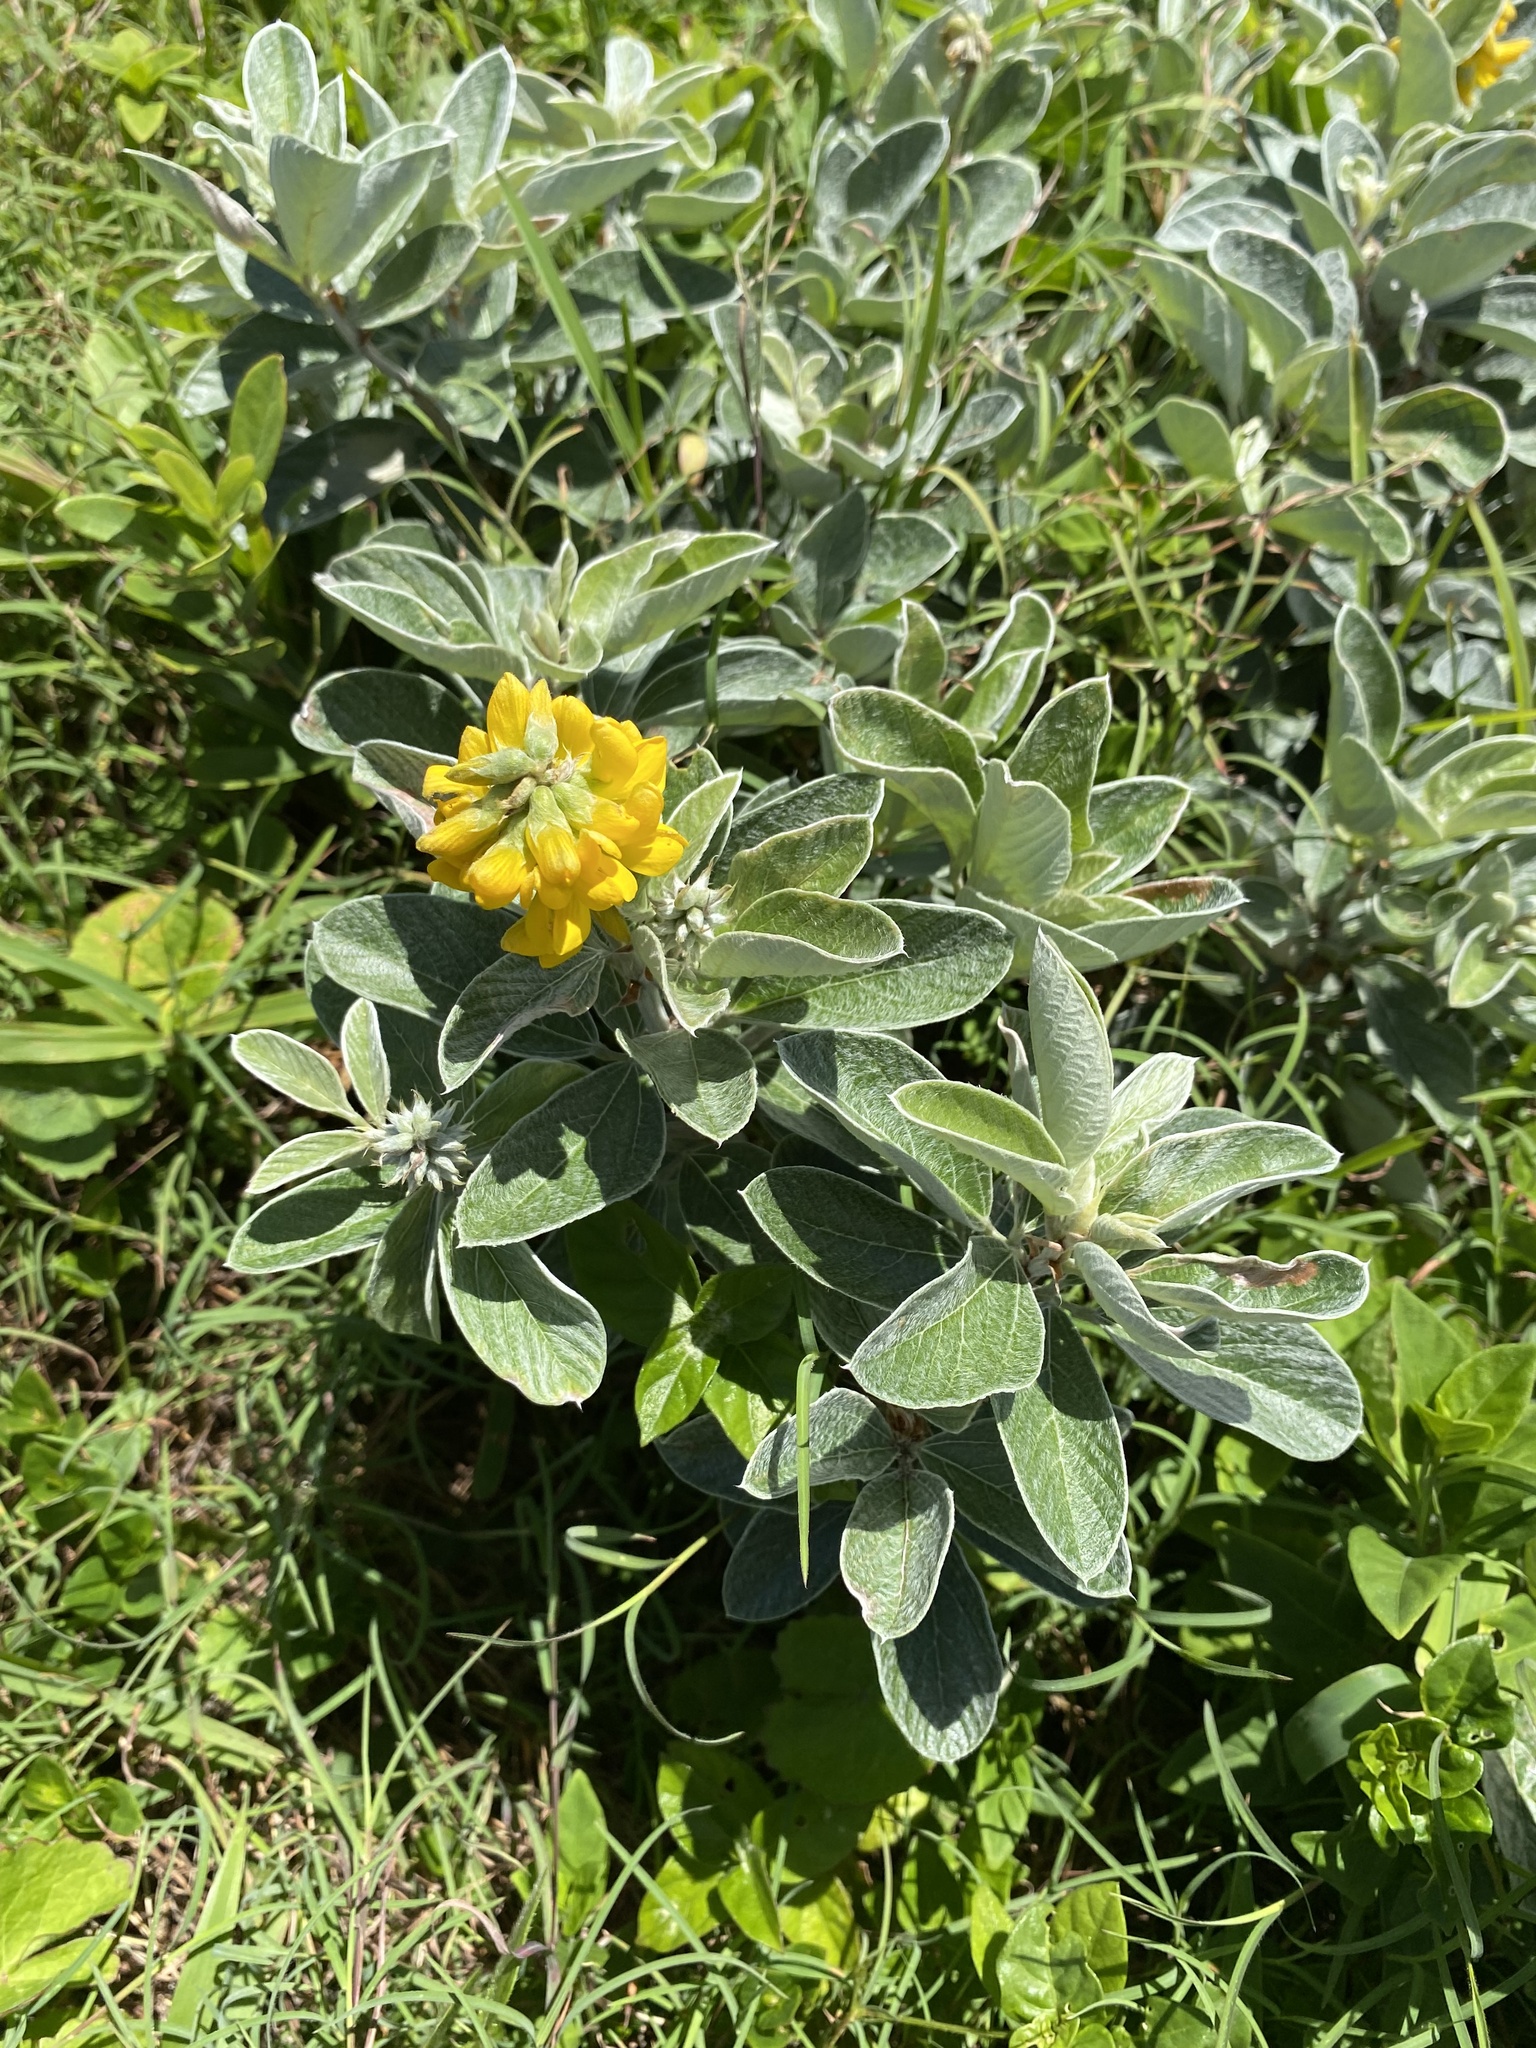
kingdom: Plantae
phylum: Tracheophyta
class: Magnoliopsida
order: Fabales
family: Fabaceae
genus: Eriosema
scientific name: Eriosema dregei
